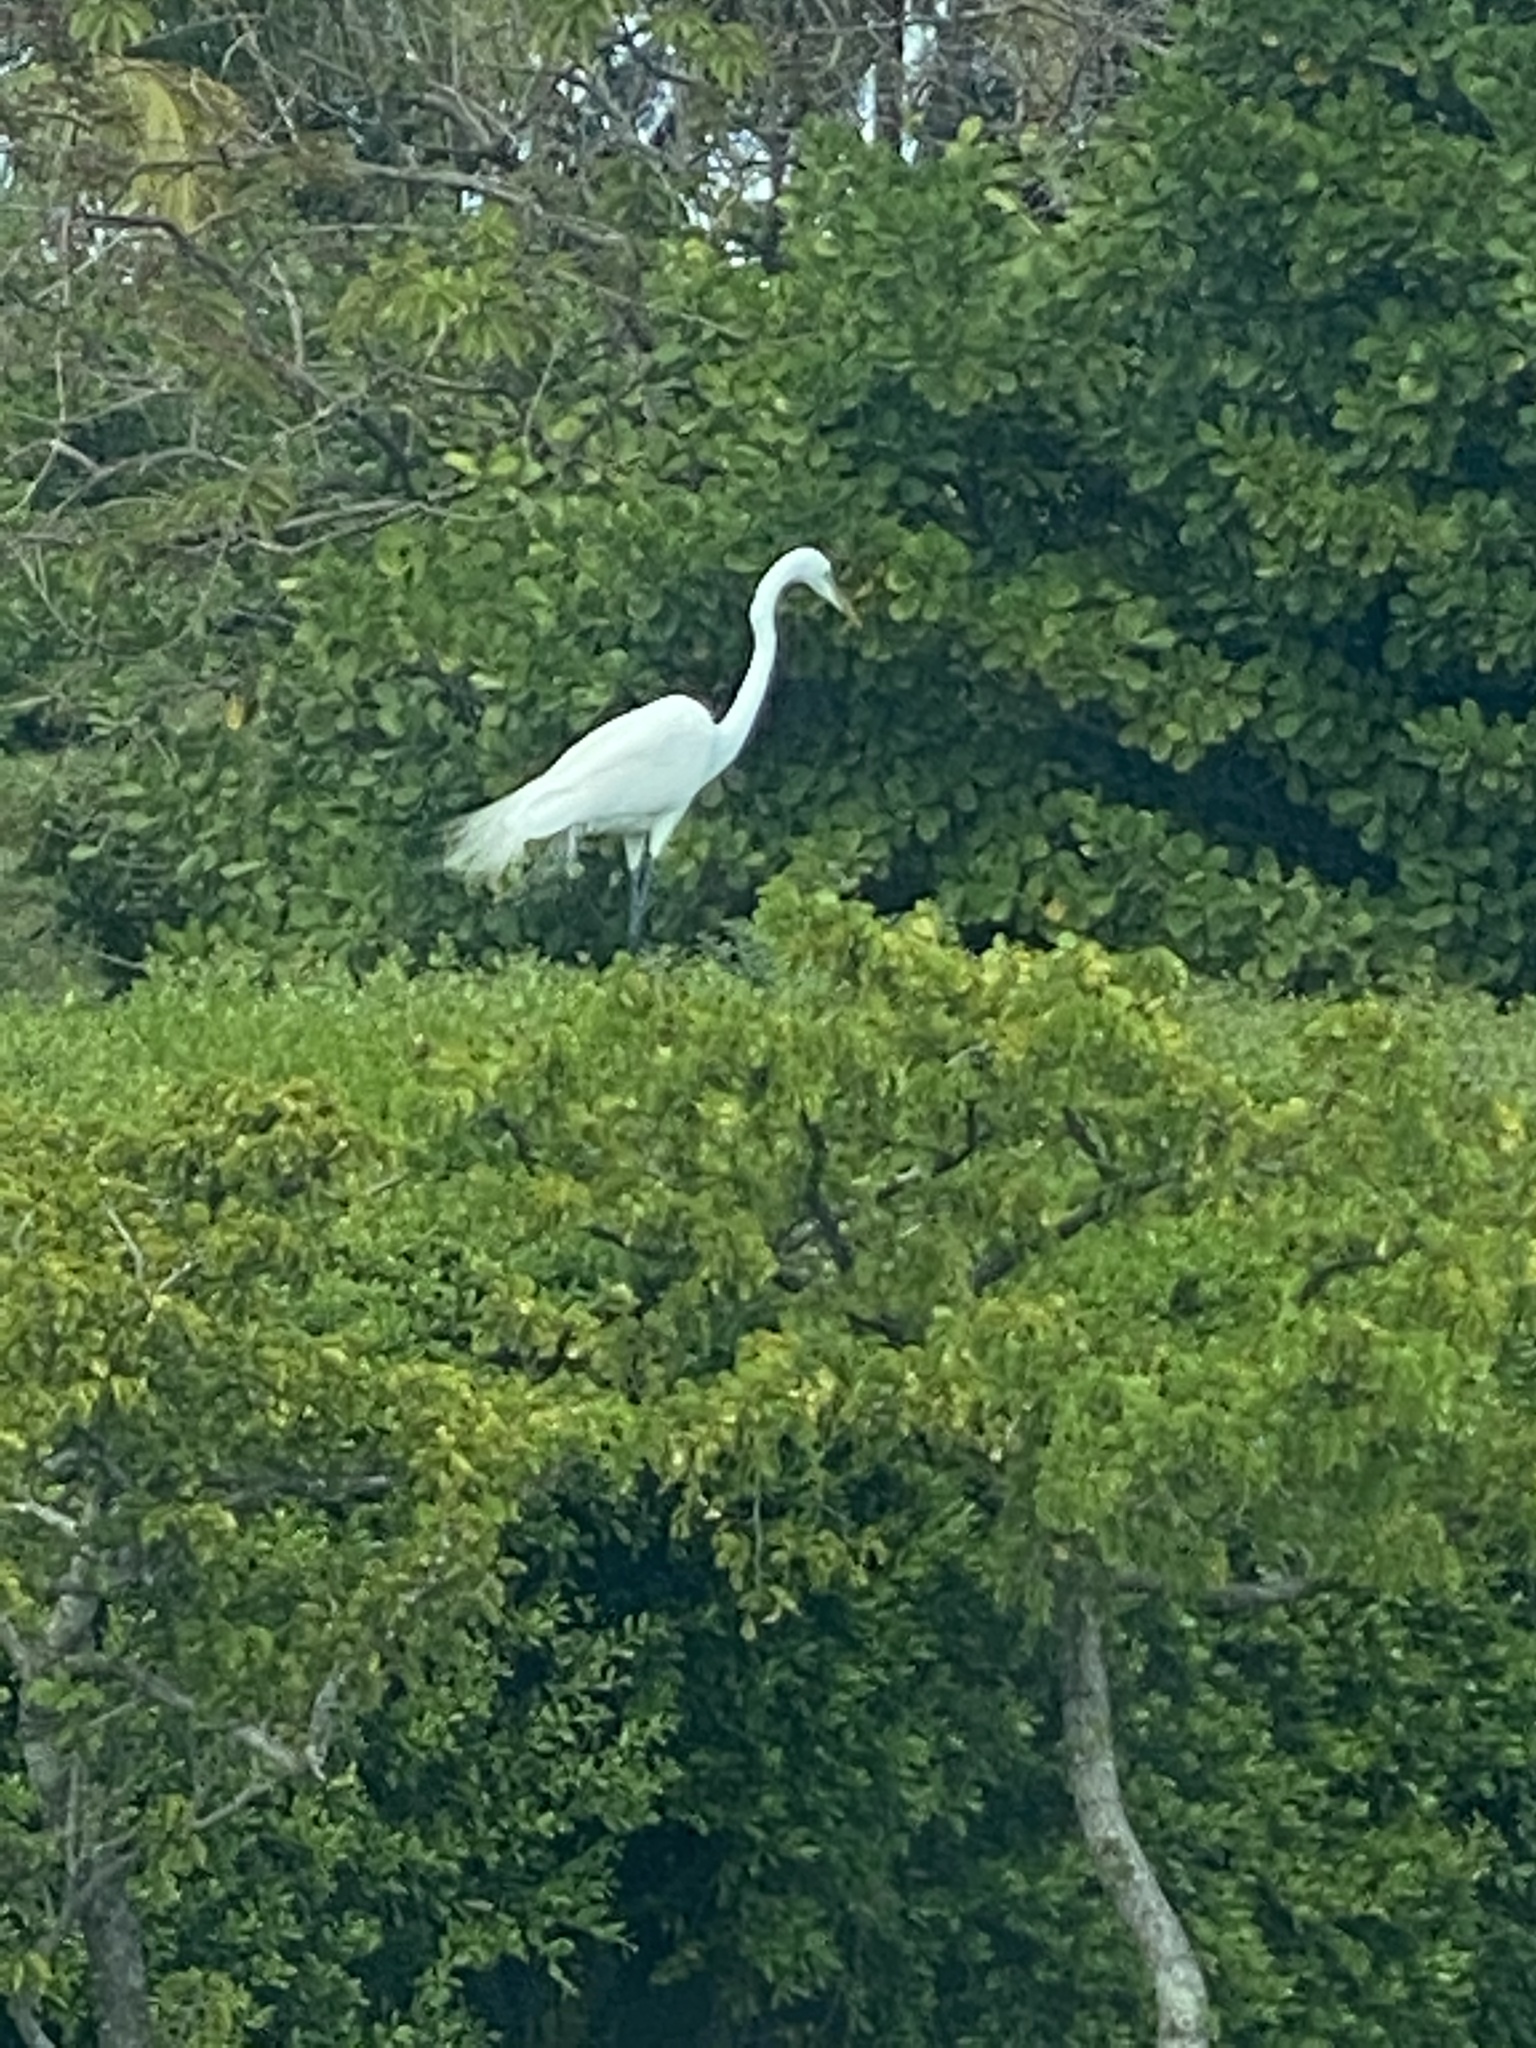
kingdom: Animalia
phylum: Chordata
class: Aves
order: Pelecaniformes
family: Ardeidae
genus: Ardea
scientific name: Ardea alba
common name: Great egret
